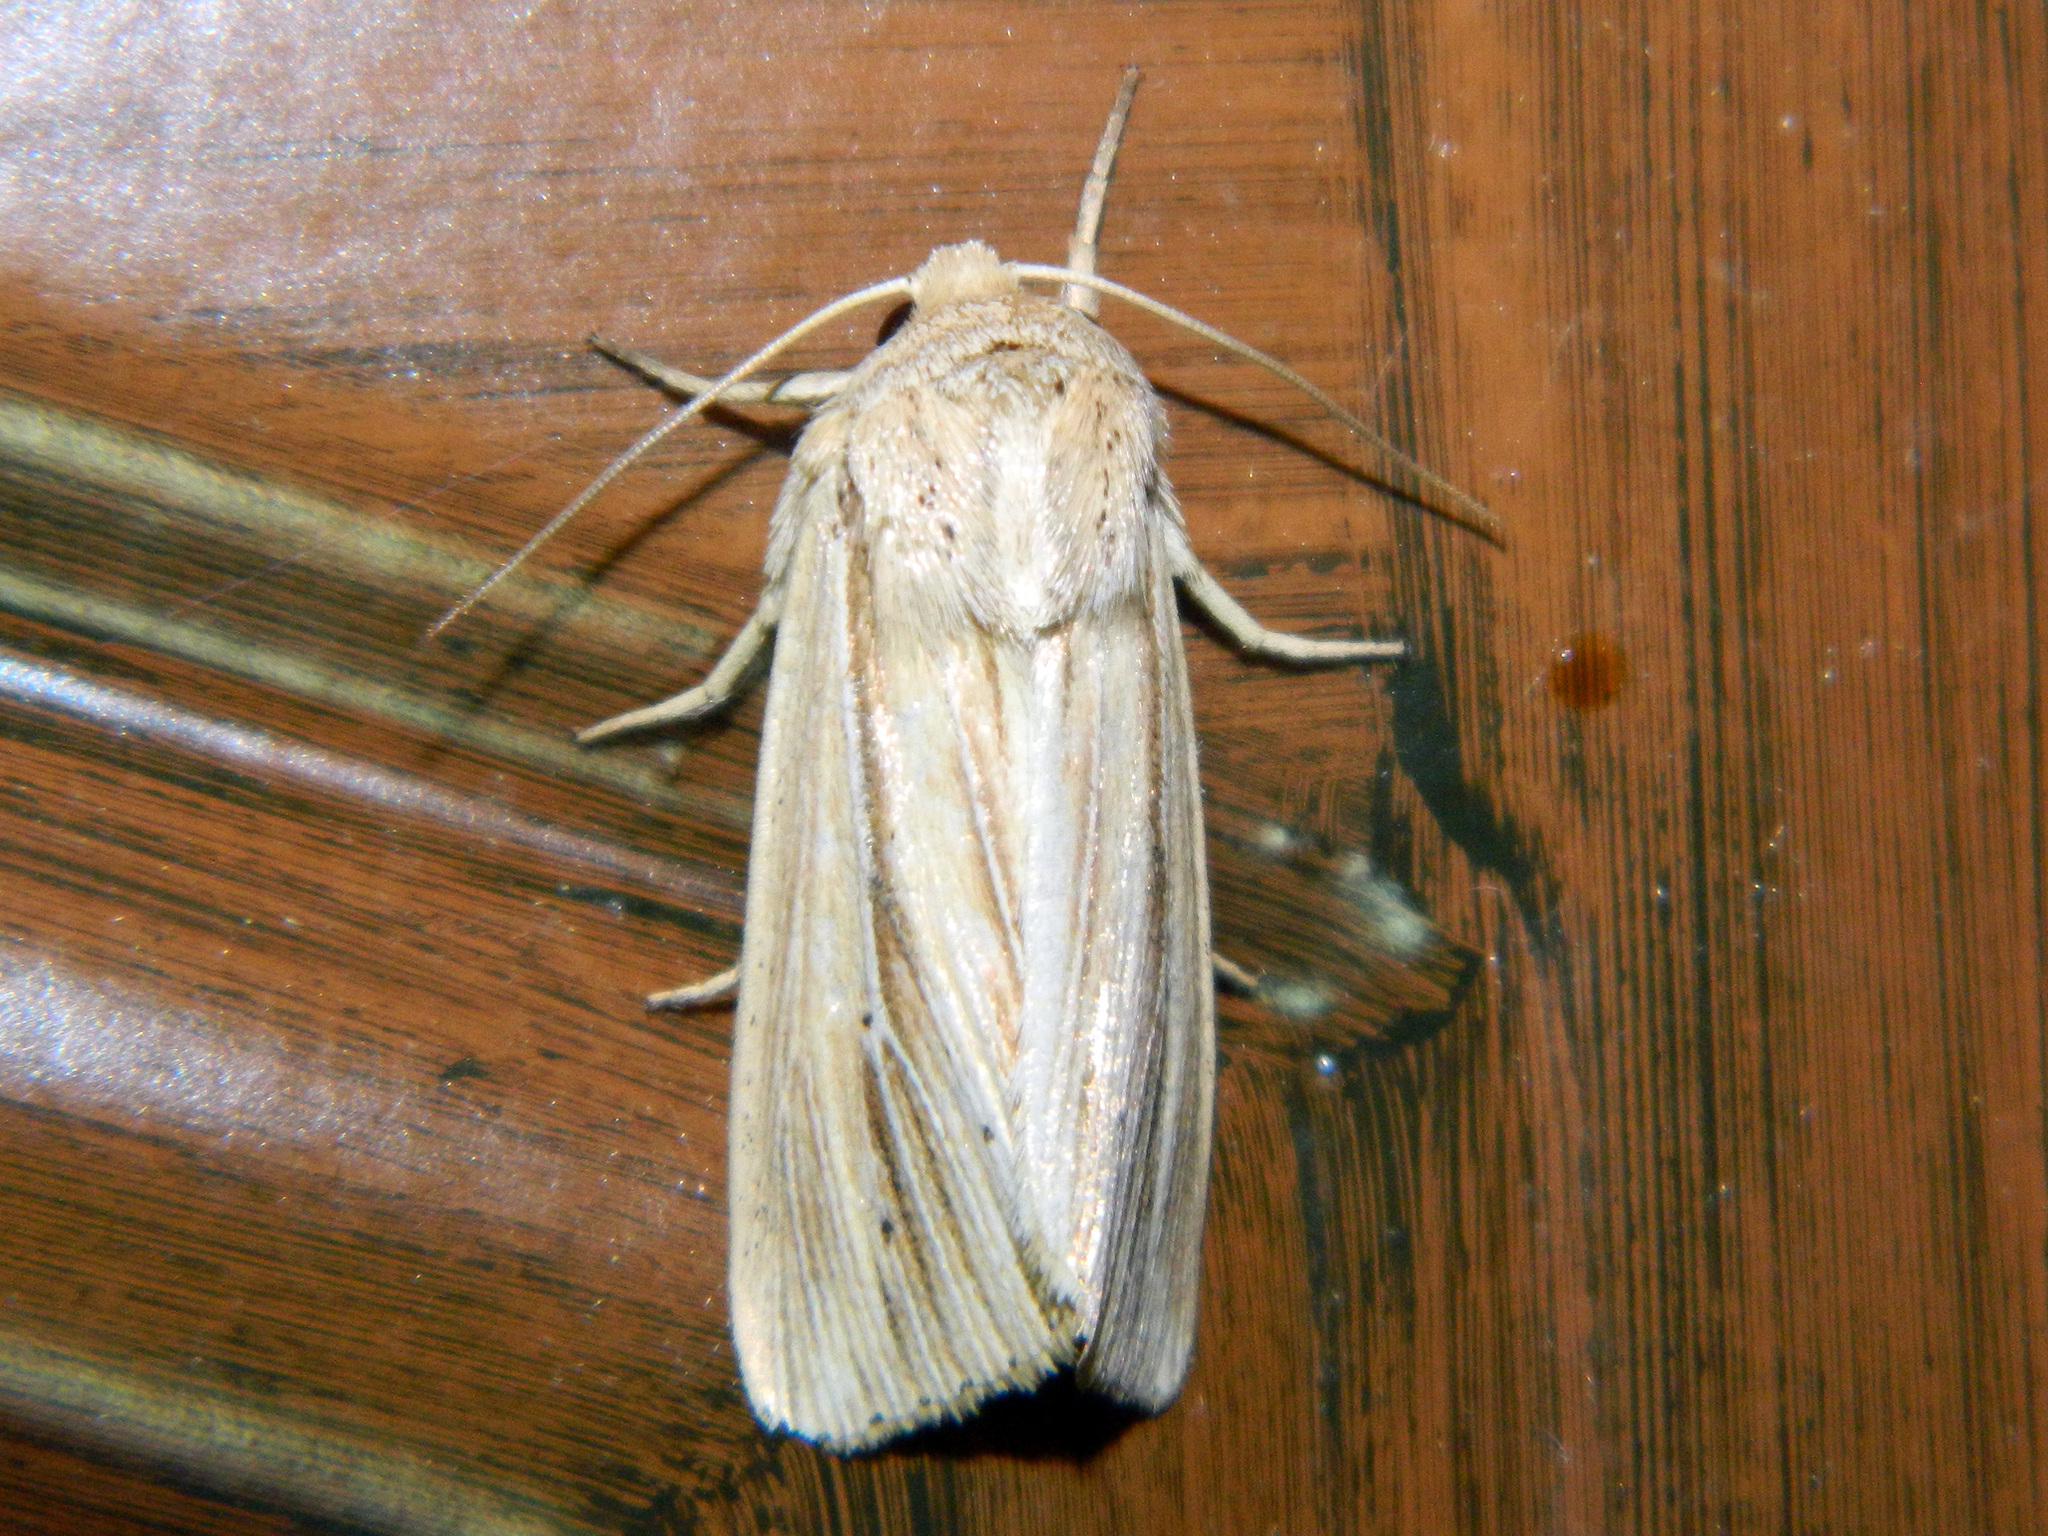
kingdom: Animalia
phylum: Arthropoda
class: Insecta
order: Lepidoptera
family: Noctuidae
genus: Mythimna
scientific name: Mythimna oxygala
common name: Lesser wainscot
